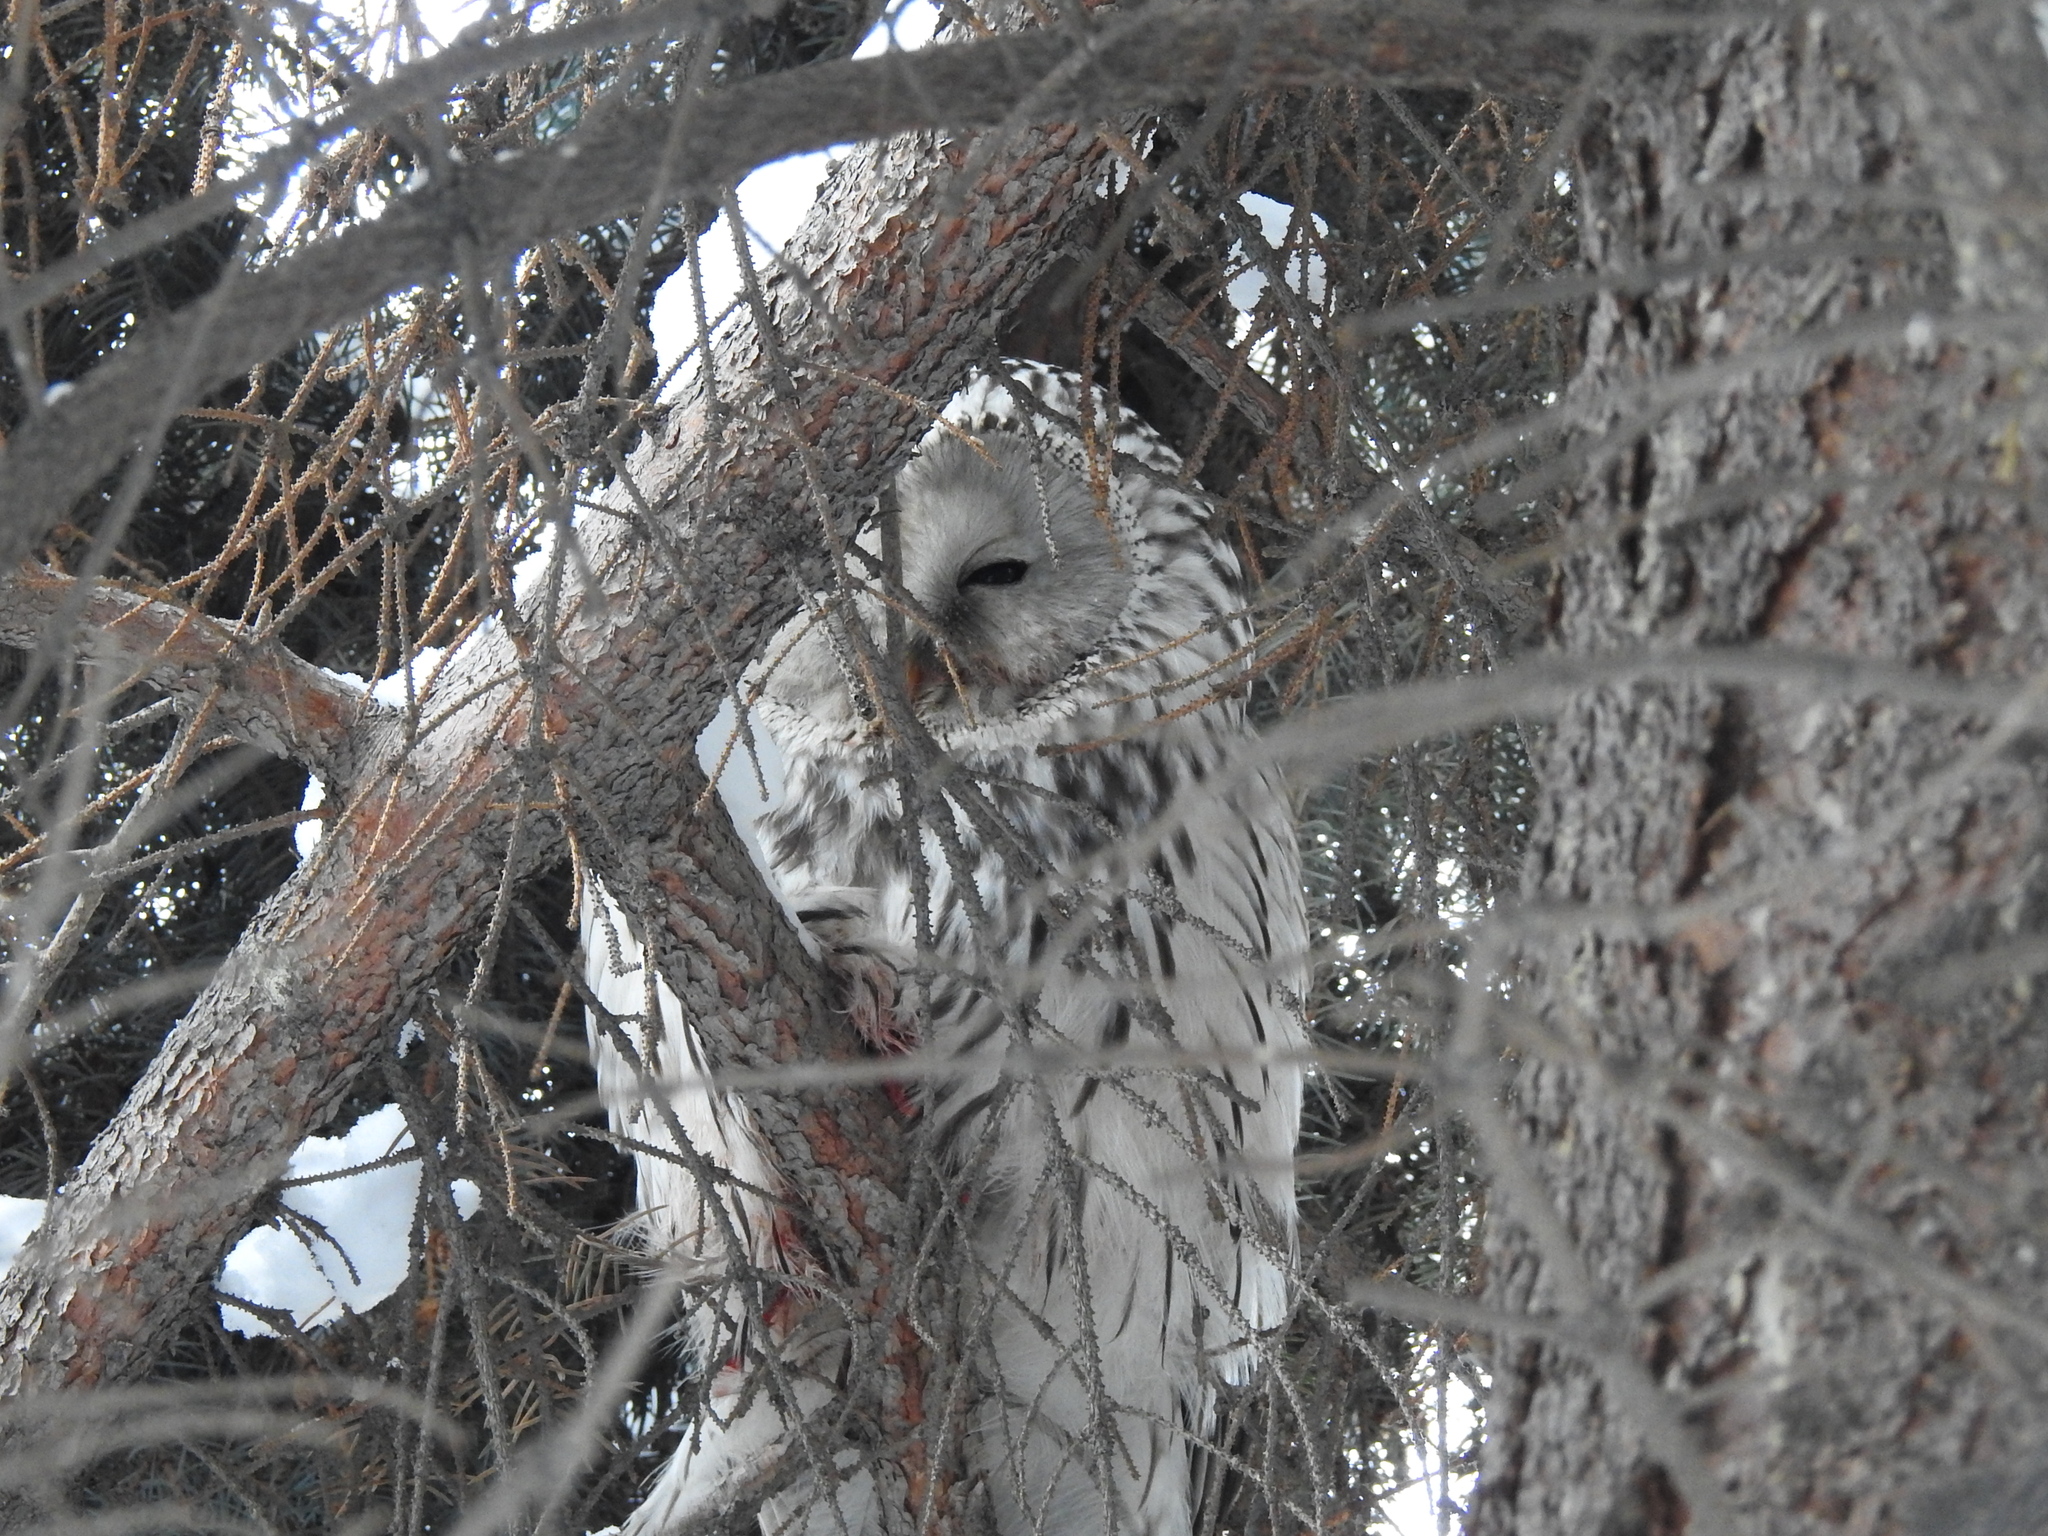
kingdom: Animalia
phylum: Chordata
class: Aves
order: Strigiformes
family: Strigidae
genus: Strix
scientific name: Strix uralensis
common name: Ural owl
